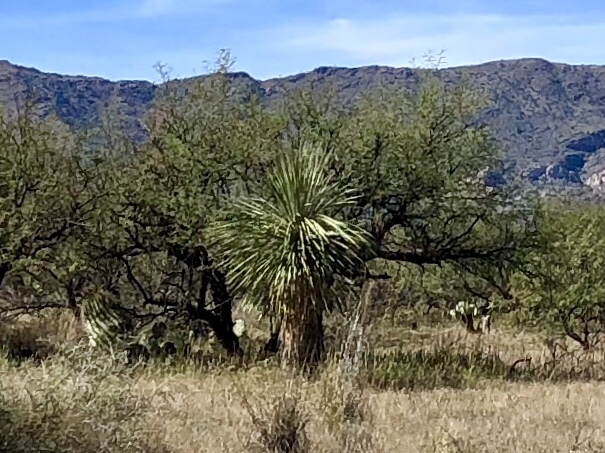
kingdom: Plantae
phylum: Tracheophyta
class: Liliopsida
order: Asparagales
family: Asparagaceae
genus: Yucca
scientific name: Yucca elata
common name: Palmella
